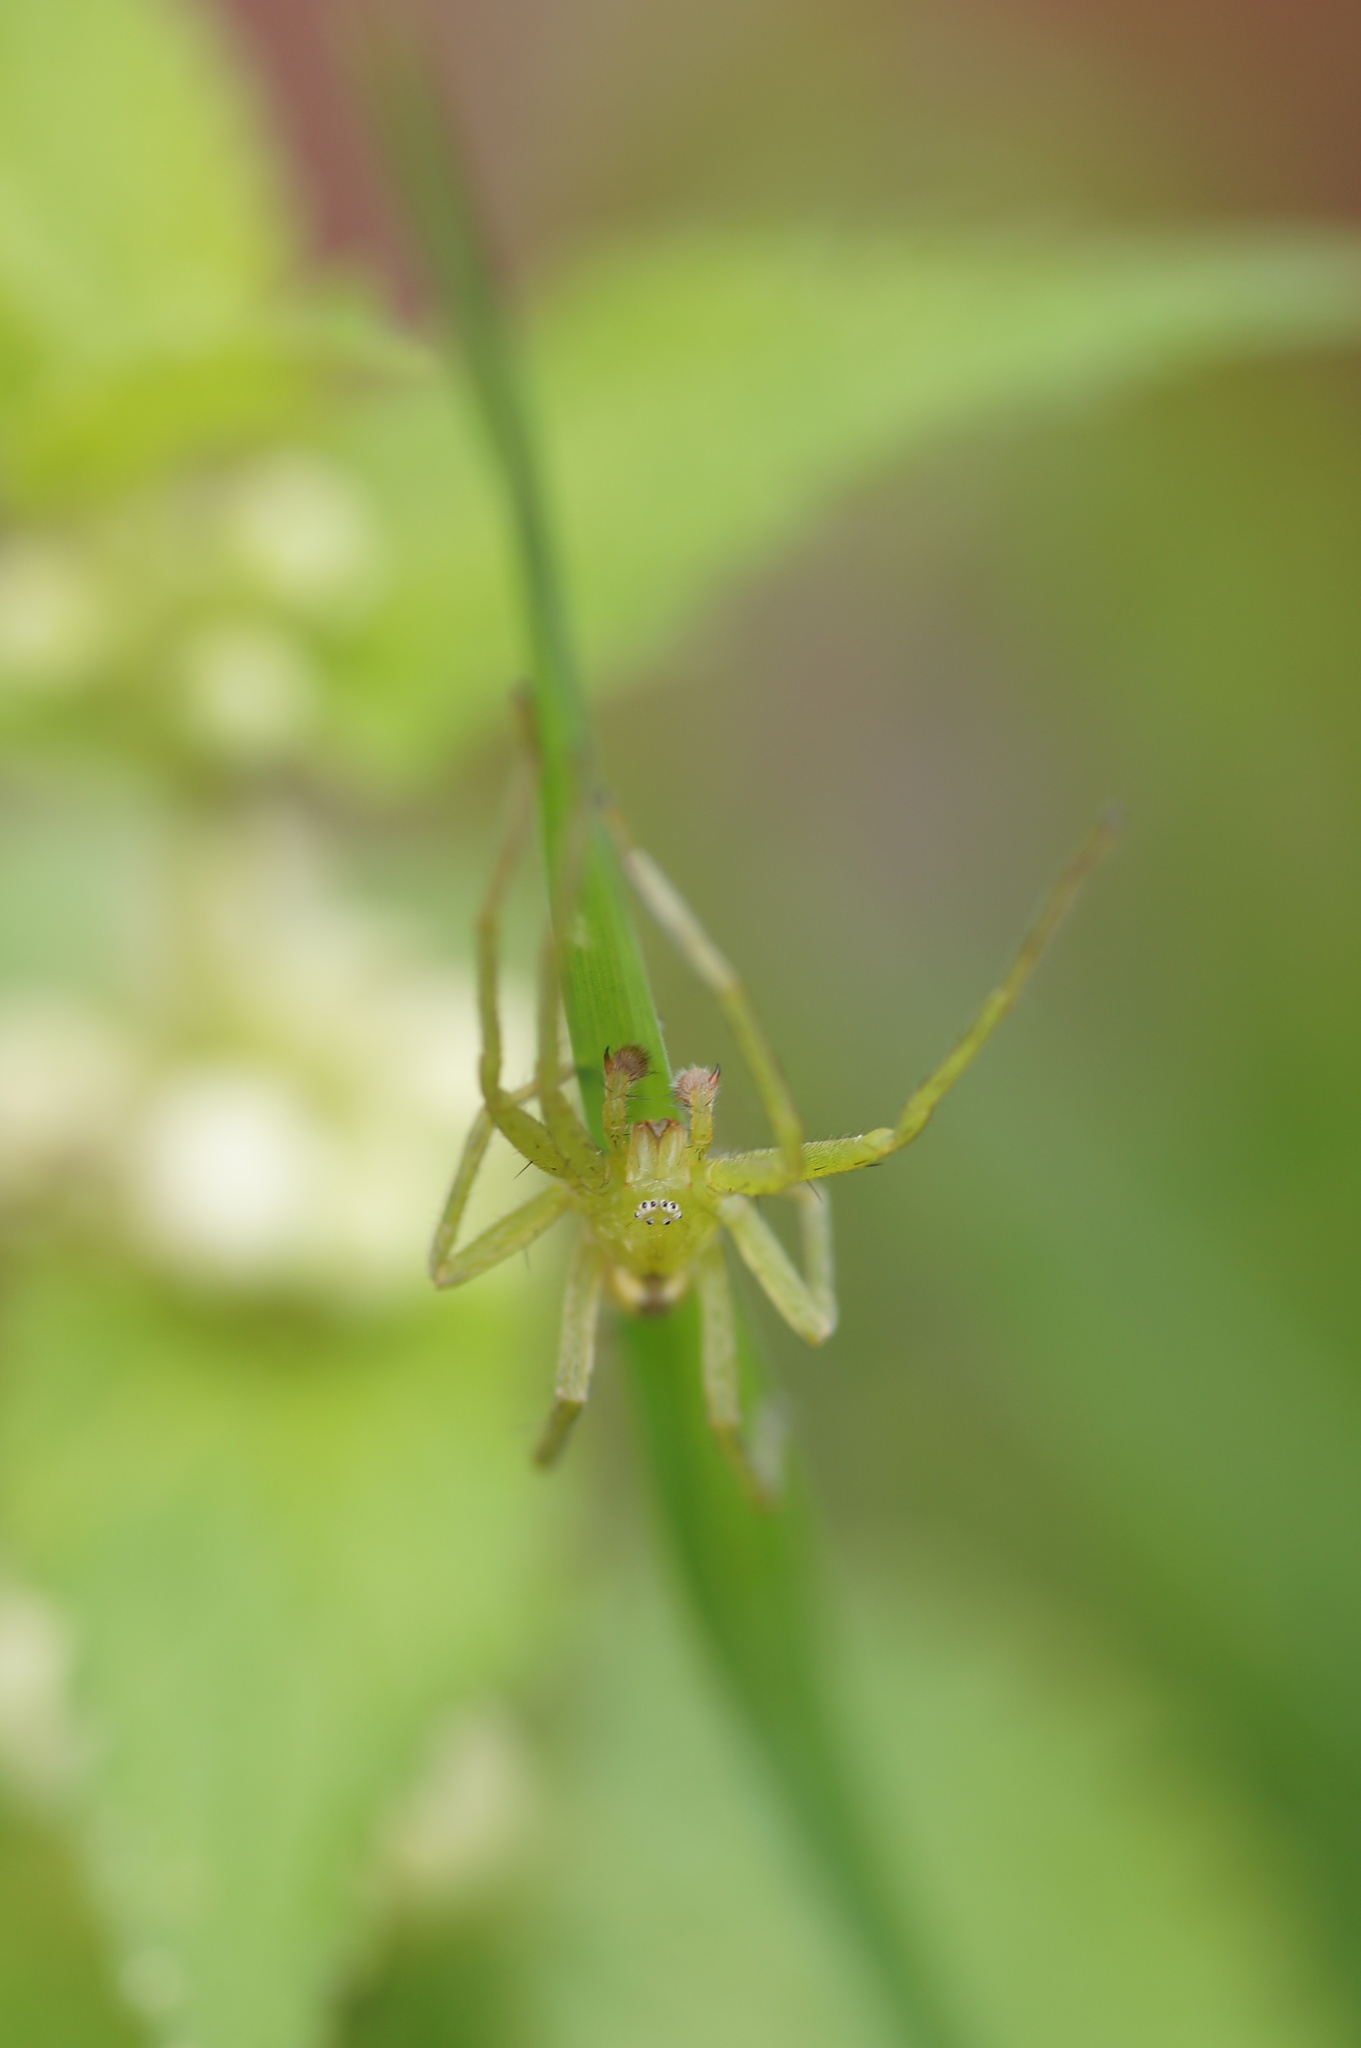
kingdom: Animalia
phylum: Arthropoda
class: Arachnida
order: Araneae
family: Sparassidae
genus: Micrommata
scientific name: Micrommata virescens
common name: Green spider
